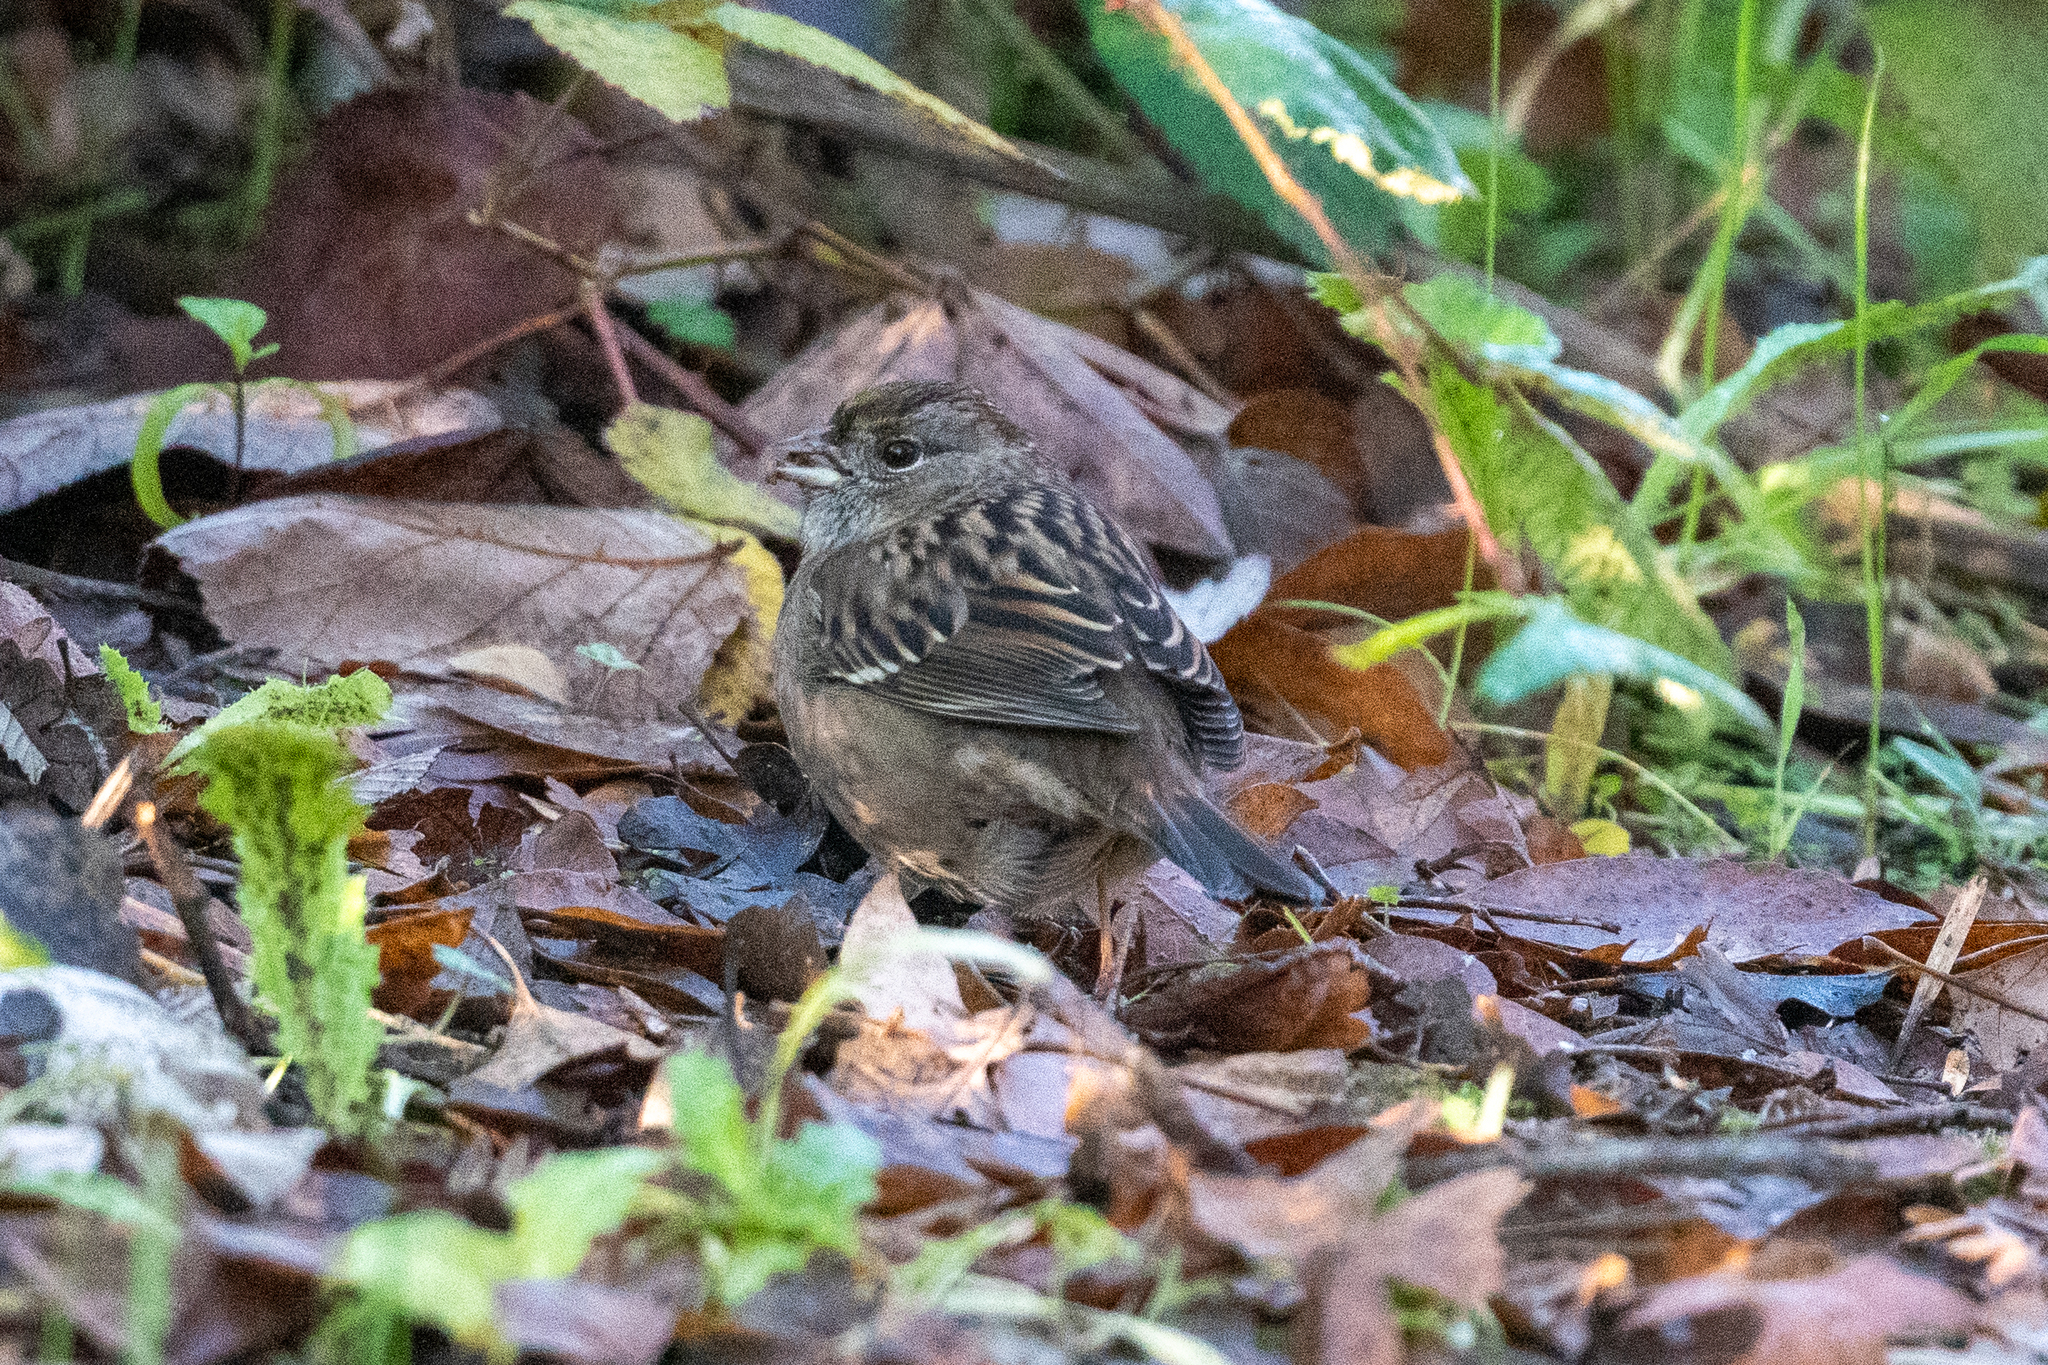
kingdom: Animalia
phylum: Chordata
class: Aves
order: Passeriformes
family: Passerellidae
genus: Zonotrichia
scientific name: Zonotrichia atricapilla
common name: Golden-crowned sparrow
